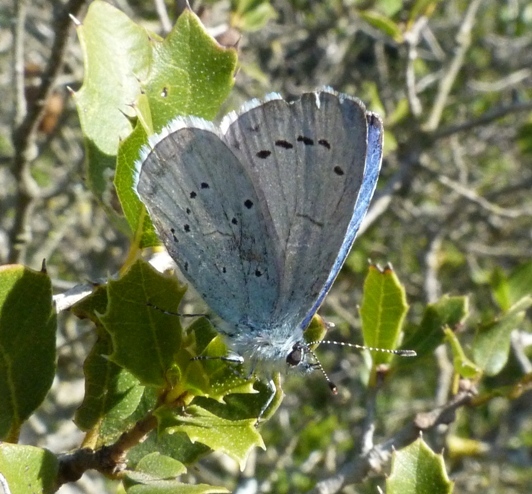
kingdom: Animalia
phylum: Arthropoda
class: Insecta
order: Lepidoptera
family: Lycaenidae
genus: Celastrina
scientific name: Celastrina argiolus
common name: Holly blue
